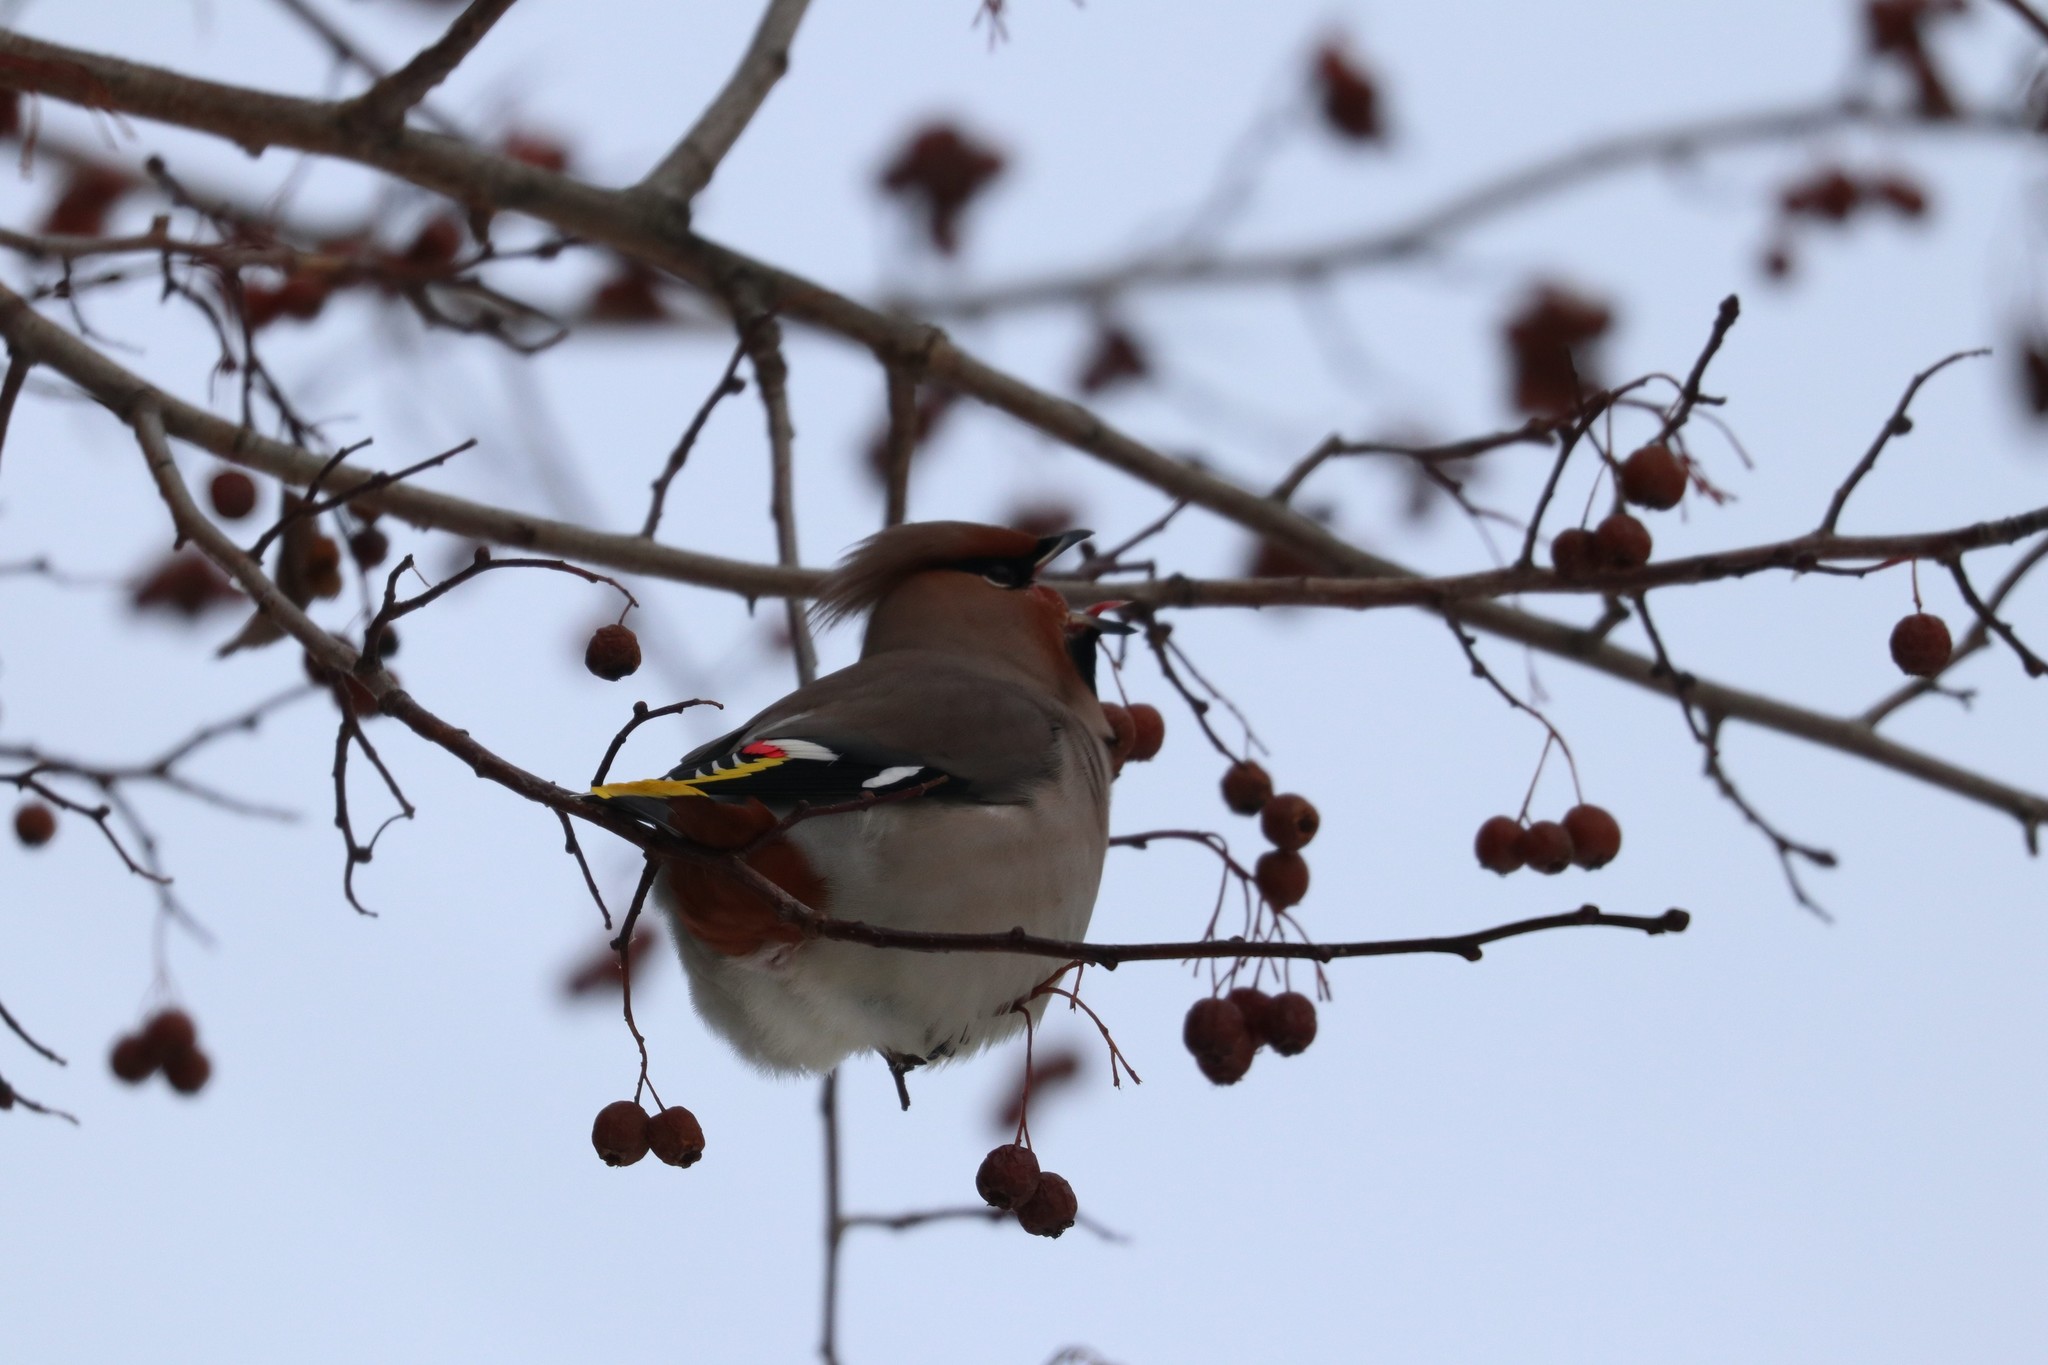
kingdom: Animalia
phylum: Chordata
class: Aves
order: Passeriformes
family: Bombycillidae
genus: Bombycilla
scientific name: Bombycilla garrulus
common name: Bohemian waxwing
